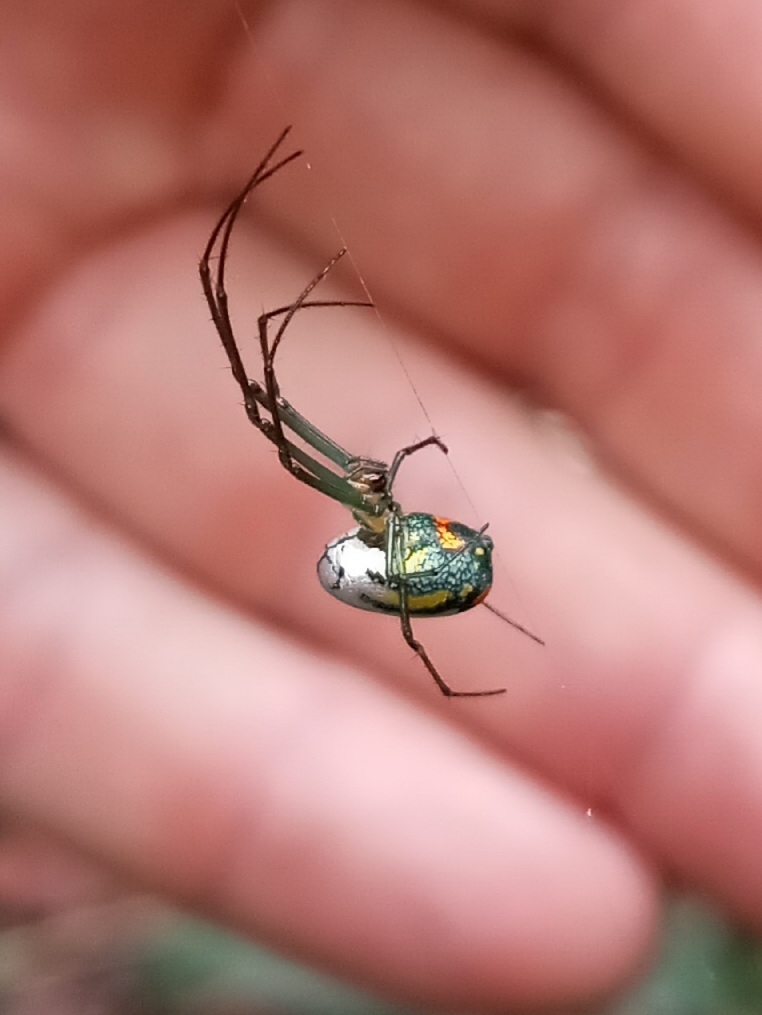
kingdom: Animalia
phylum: Arthropoda
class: Arachnida
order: Araneae
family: Tetragnathidae
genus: Leucauge
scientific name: Leucauge argyrobapta
